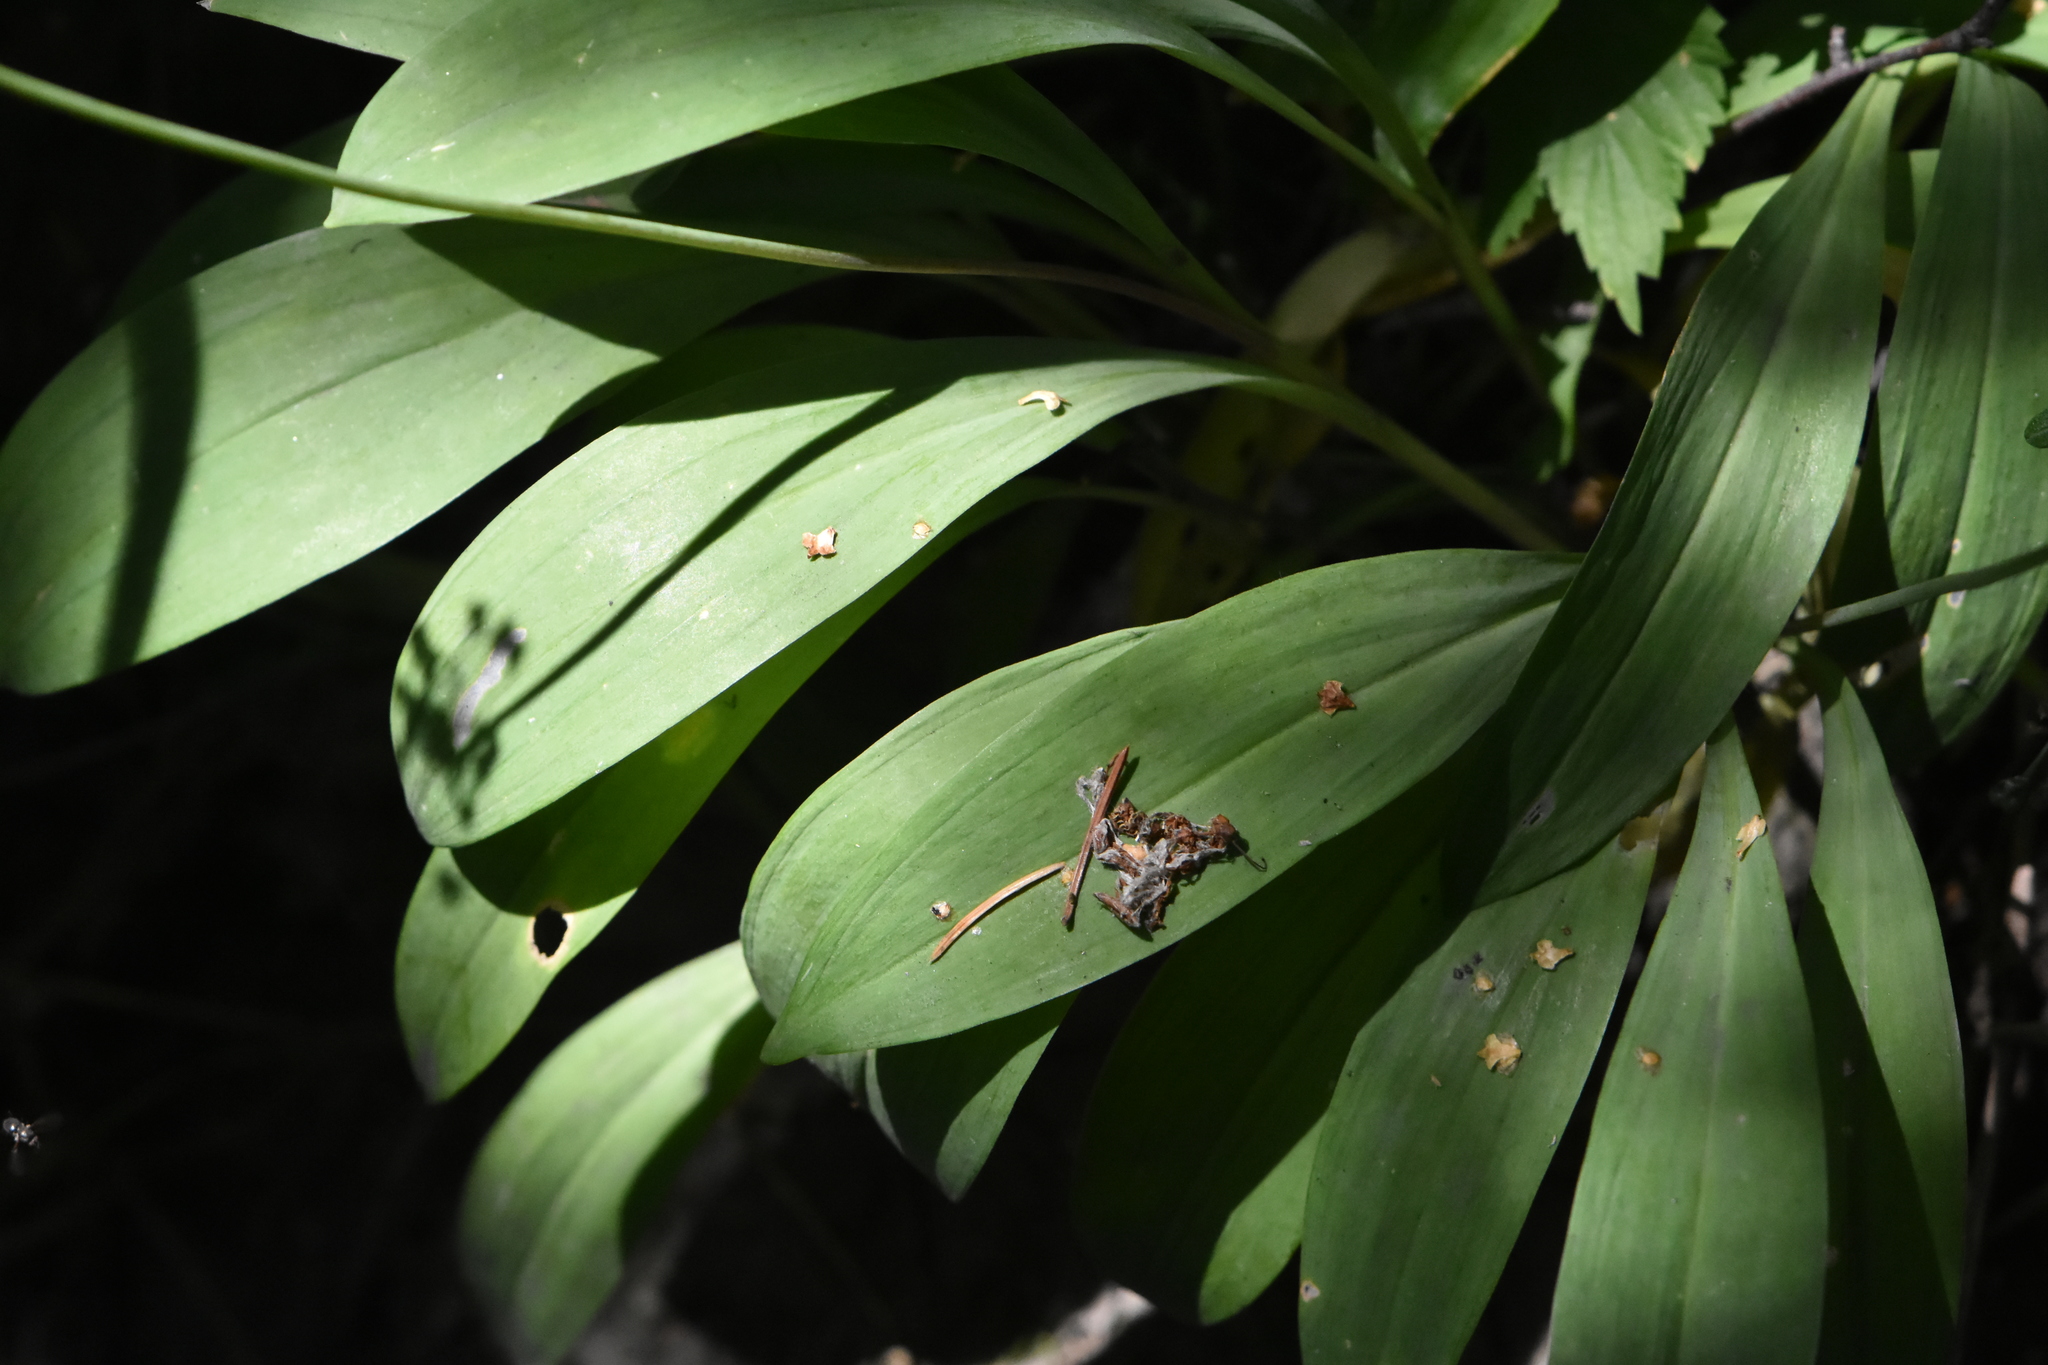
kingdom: Plantae
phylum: Tracheophyta
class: Liliopsida
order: Asparagales
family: Amaryllidaceae
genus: Allium
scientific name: Allium microdictyon
